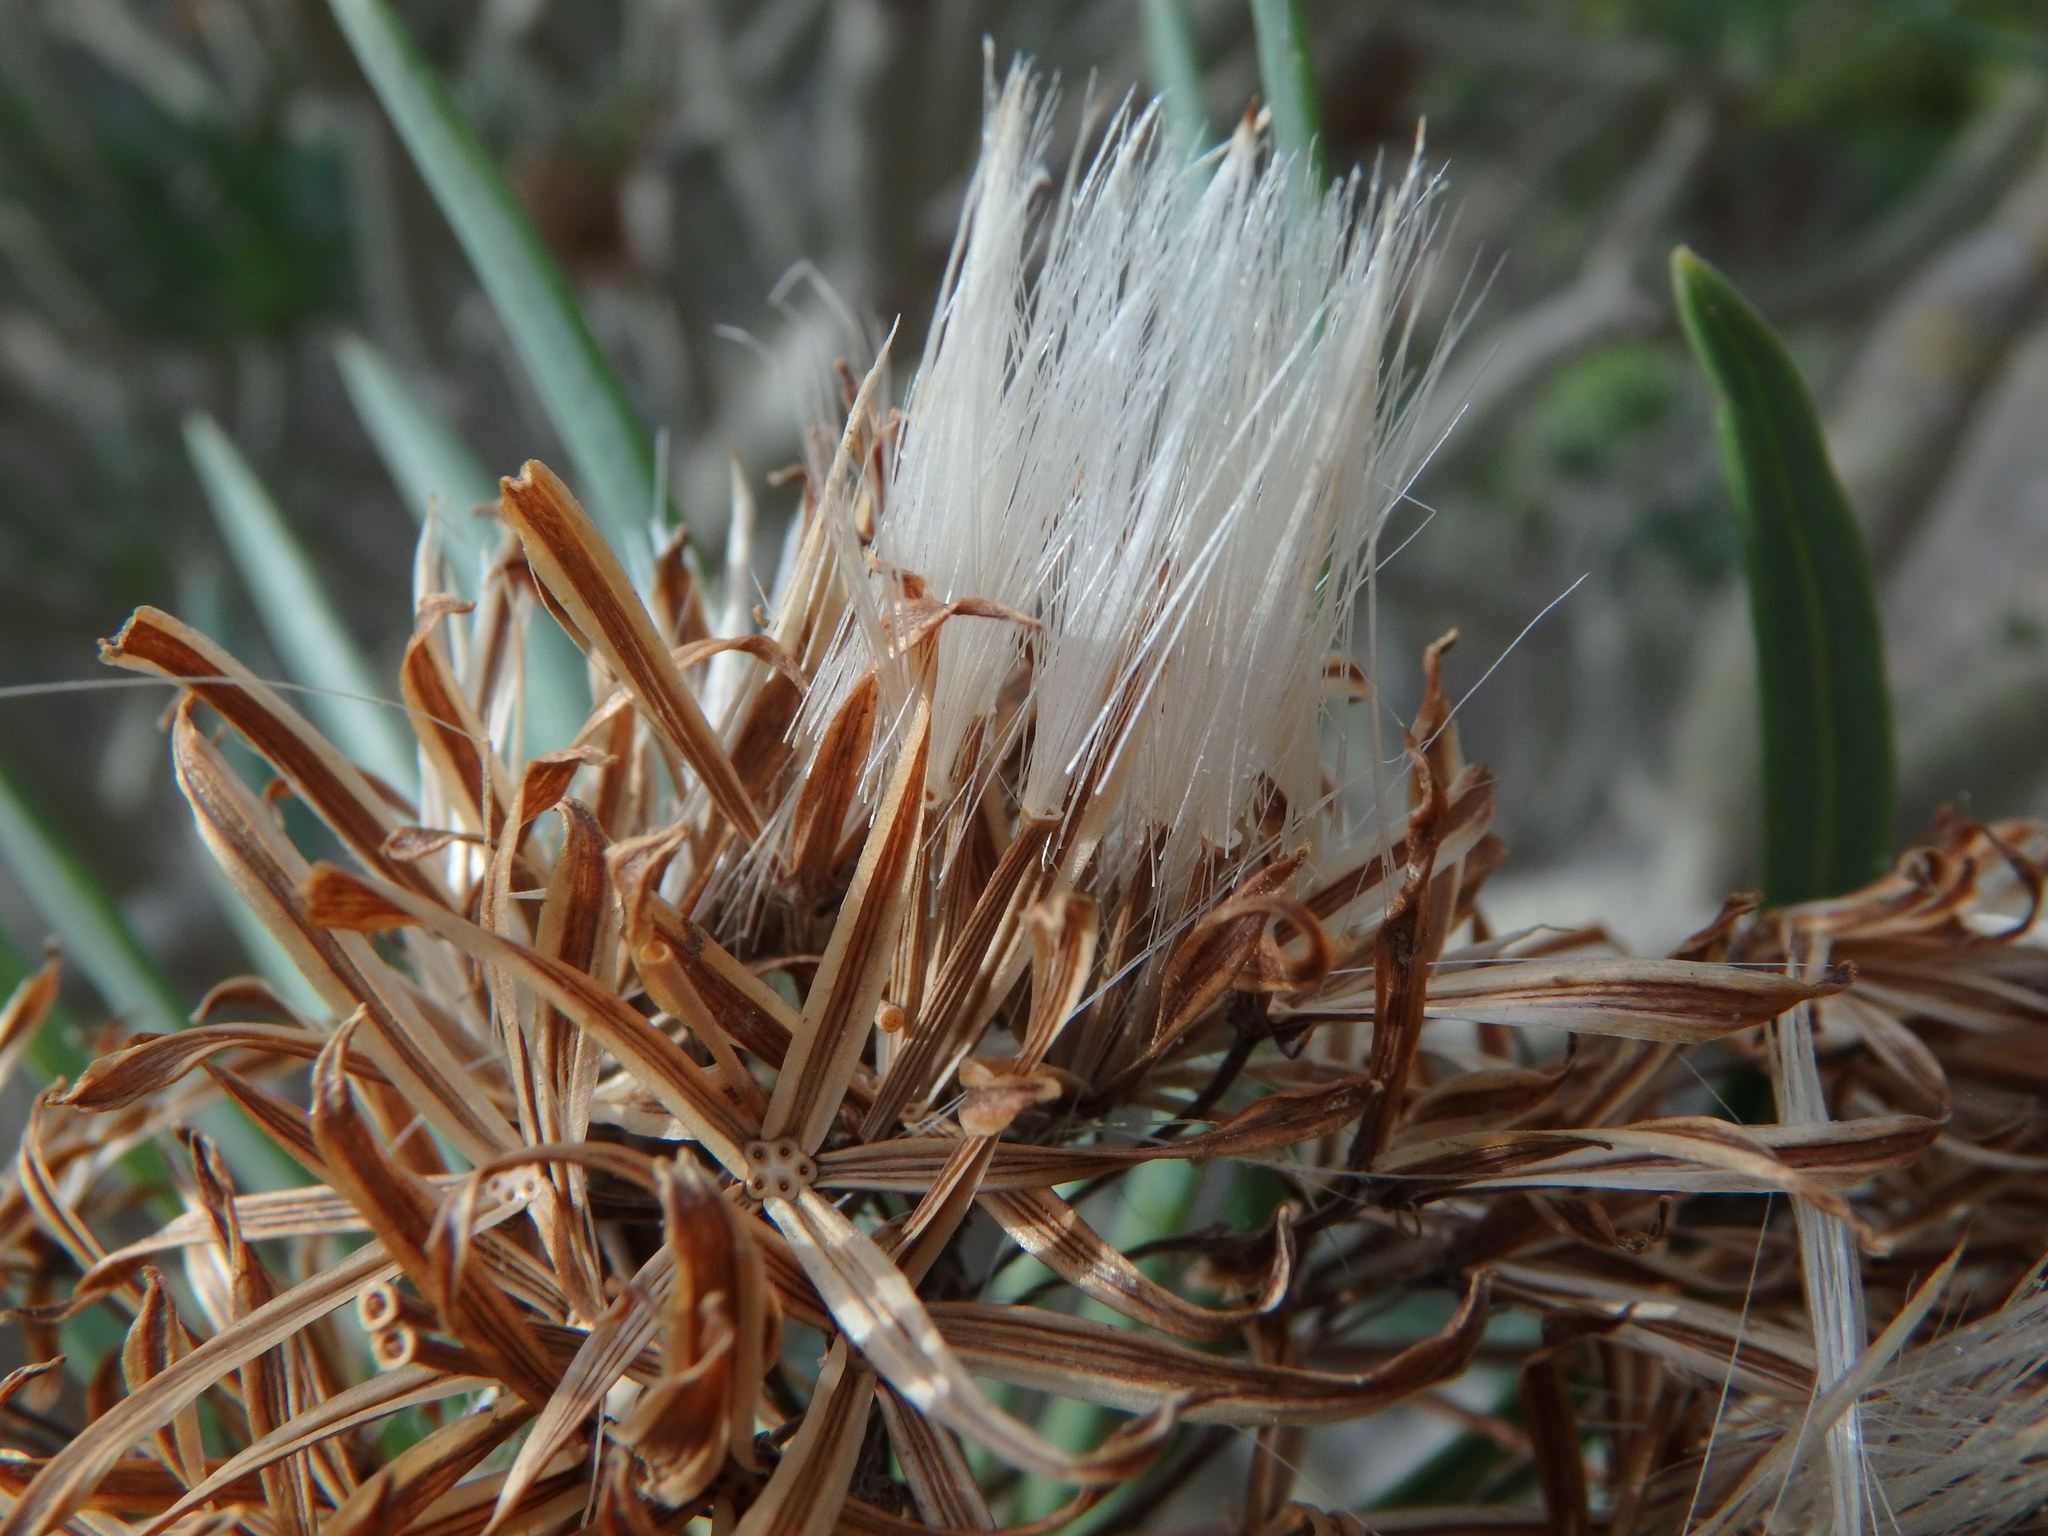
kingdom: Plantae
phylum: Tracheophyta
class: Magnoliopsida
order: Asterales
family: Asteraceae
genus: Kleinia
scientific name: Kleinia neriifolia
